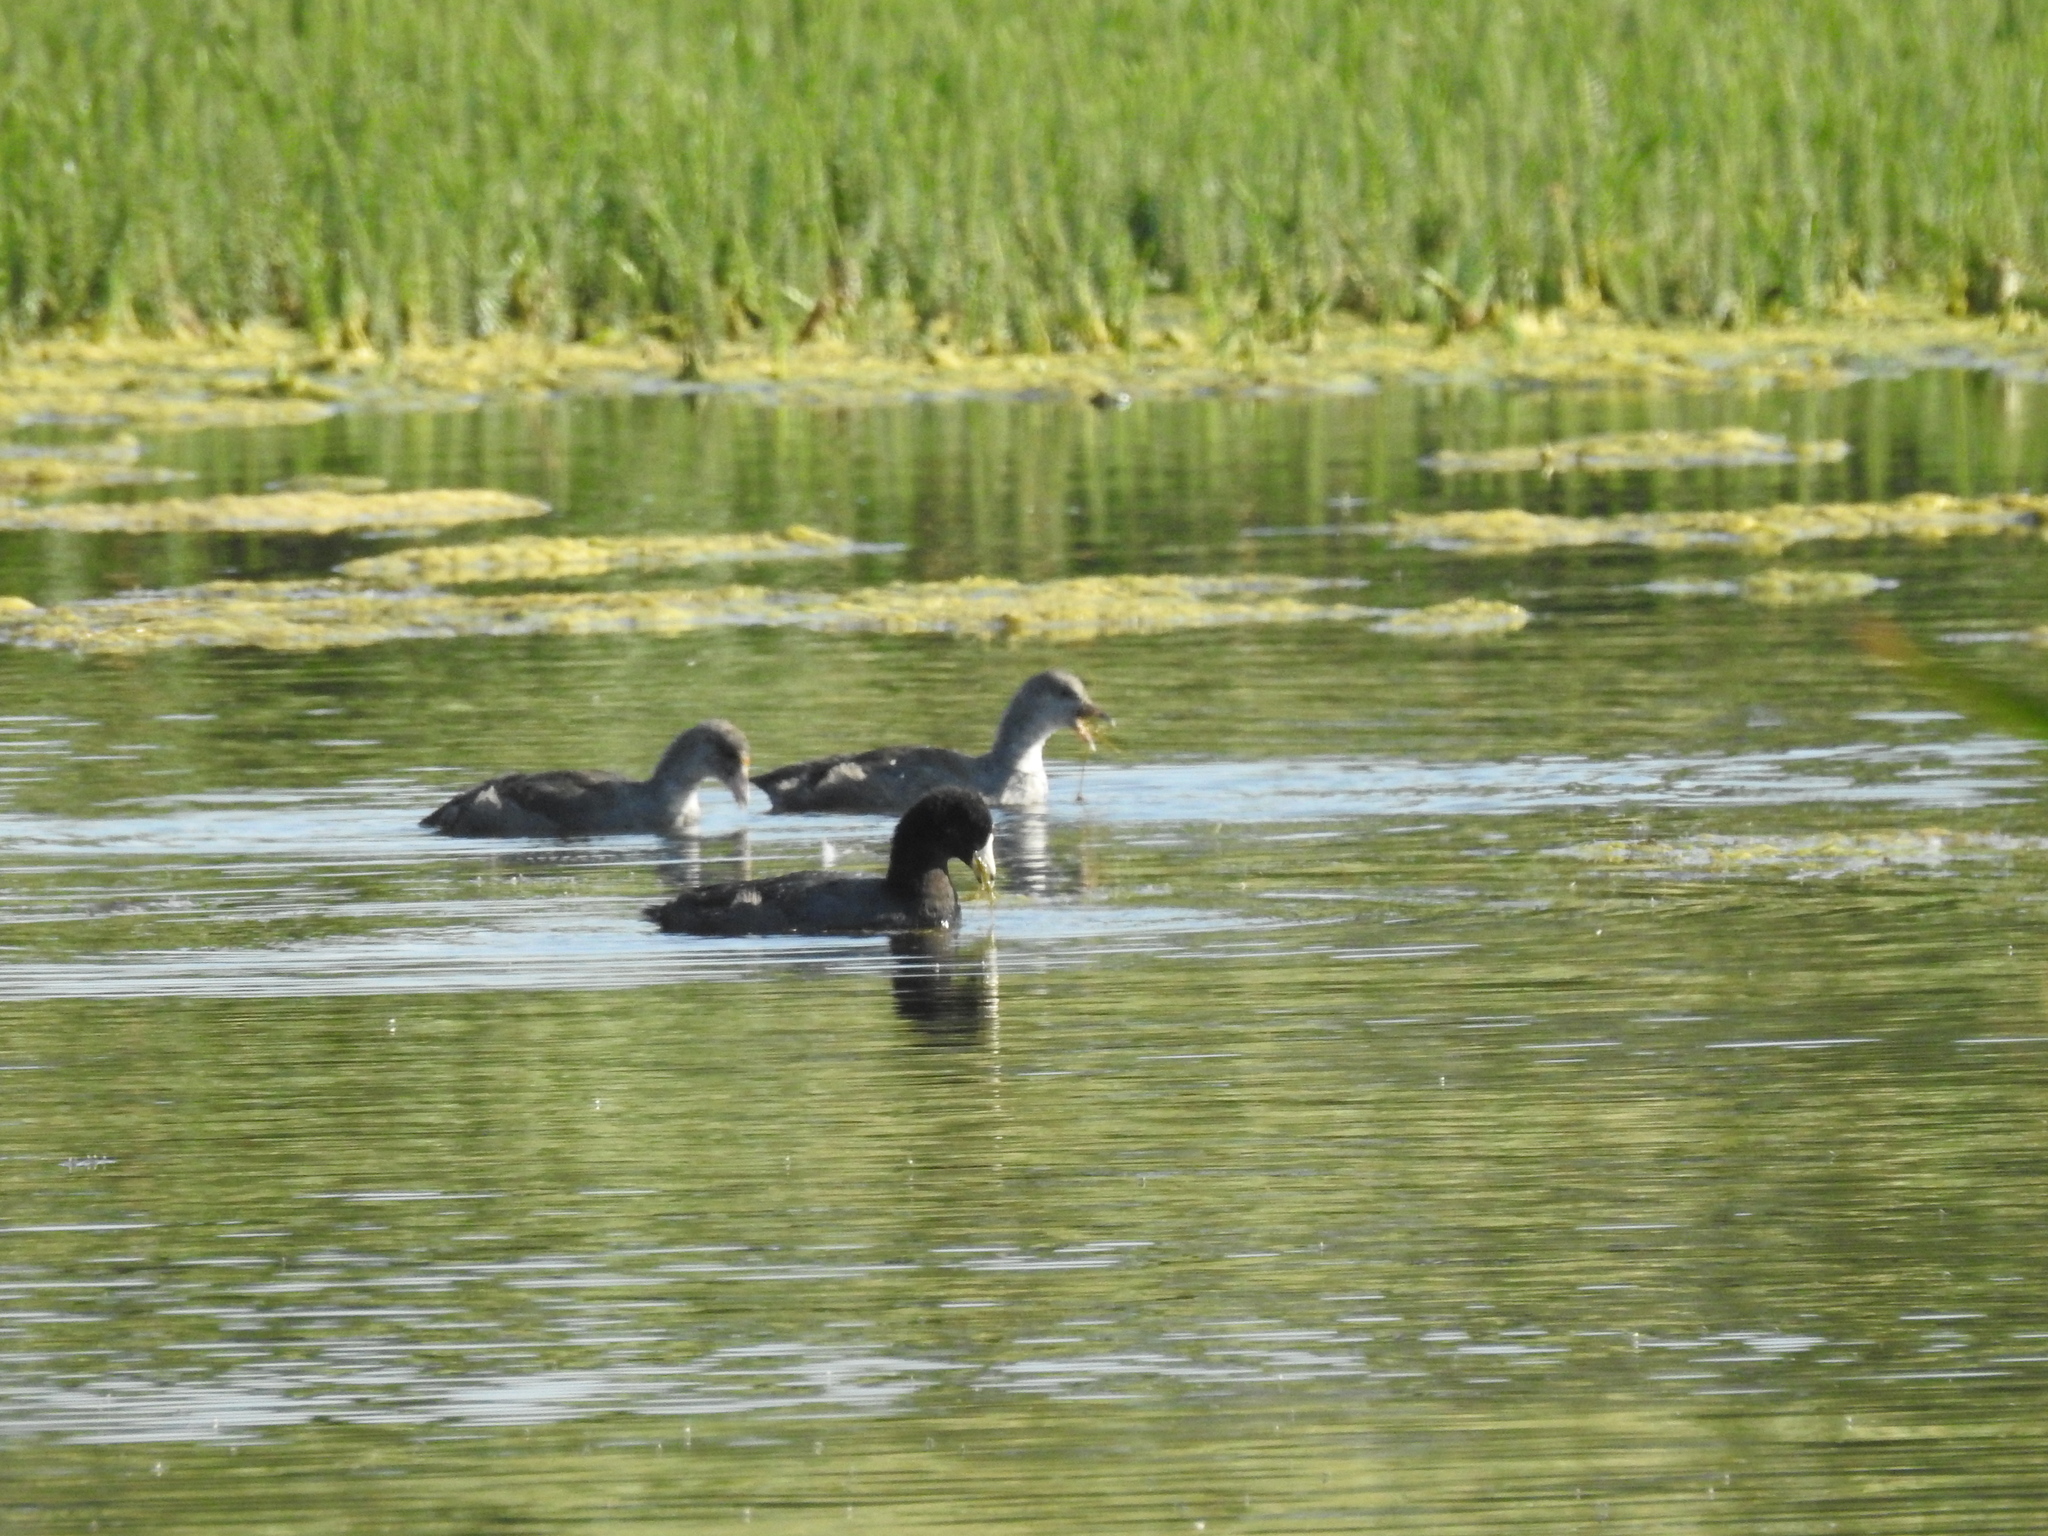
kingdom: Animalia
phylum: Chordata
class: Aves
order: Gruiformes
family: Rallidae
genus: Fulica
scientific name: Fulica americana
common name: American coot
